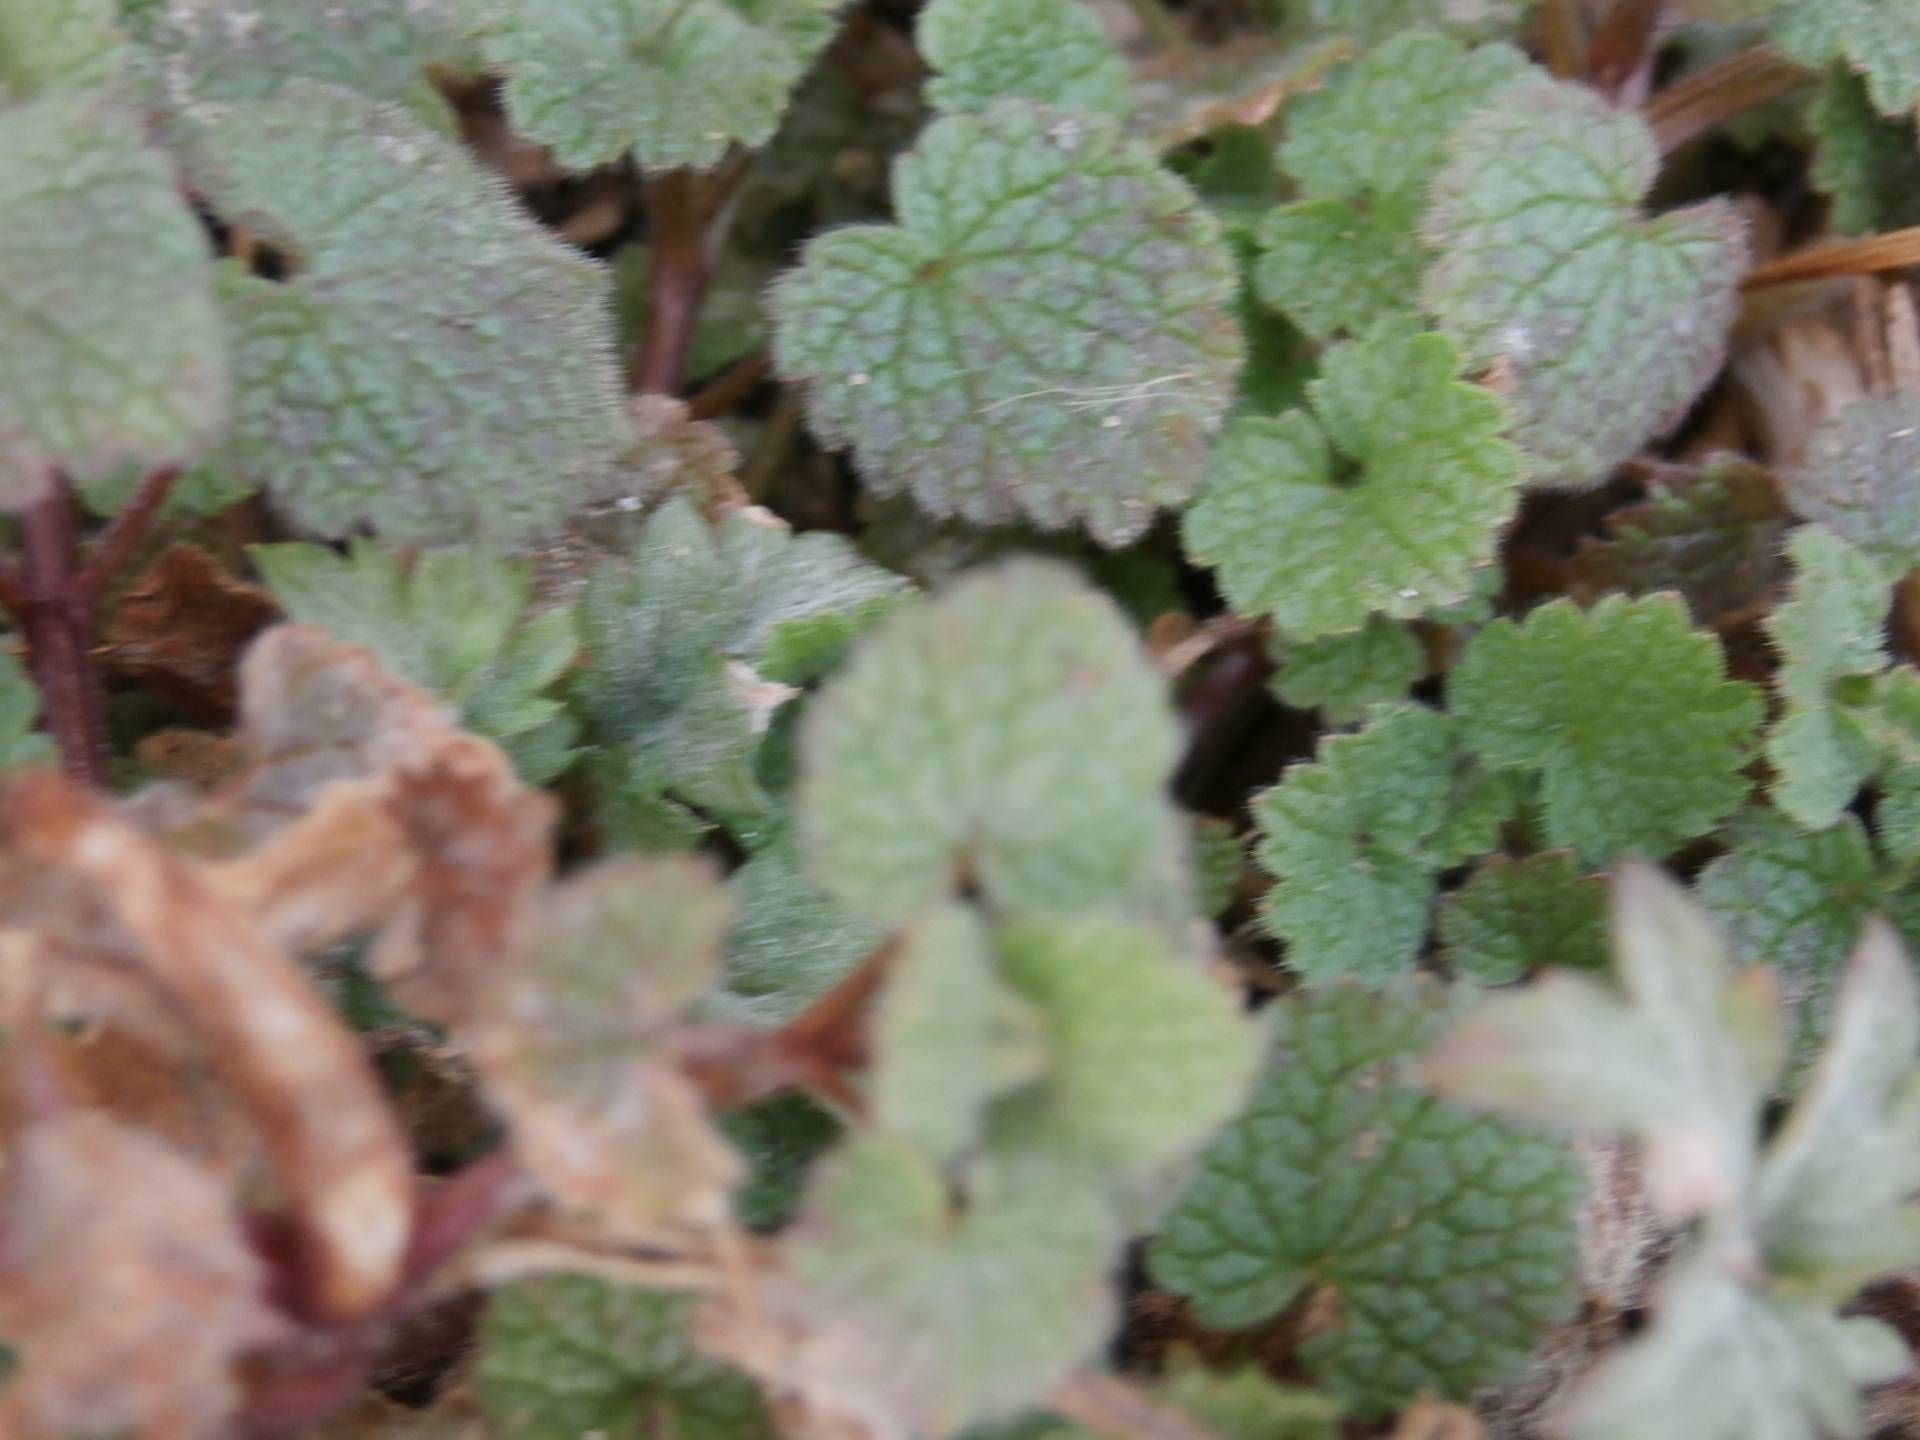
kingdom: Plantae
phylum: Tracheophyta
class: Magnoliopsida
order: Lamiales
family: Lamiaceae
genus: Lamium
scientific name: Lamium purpureum
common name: Red dead-nettle
